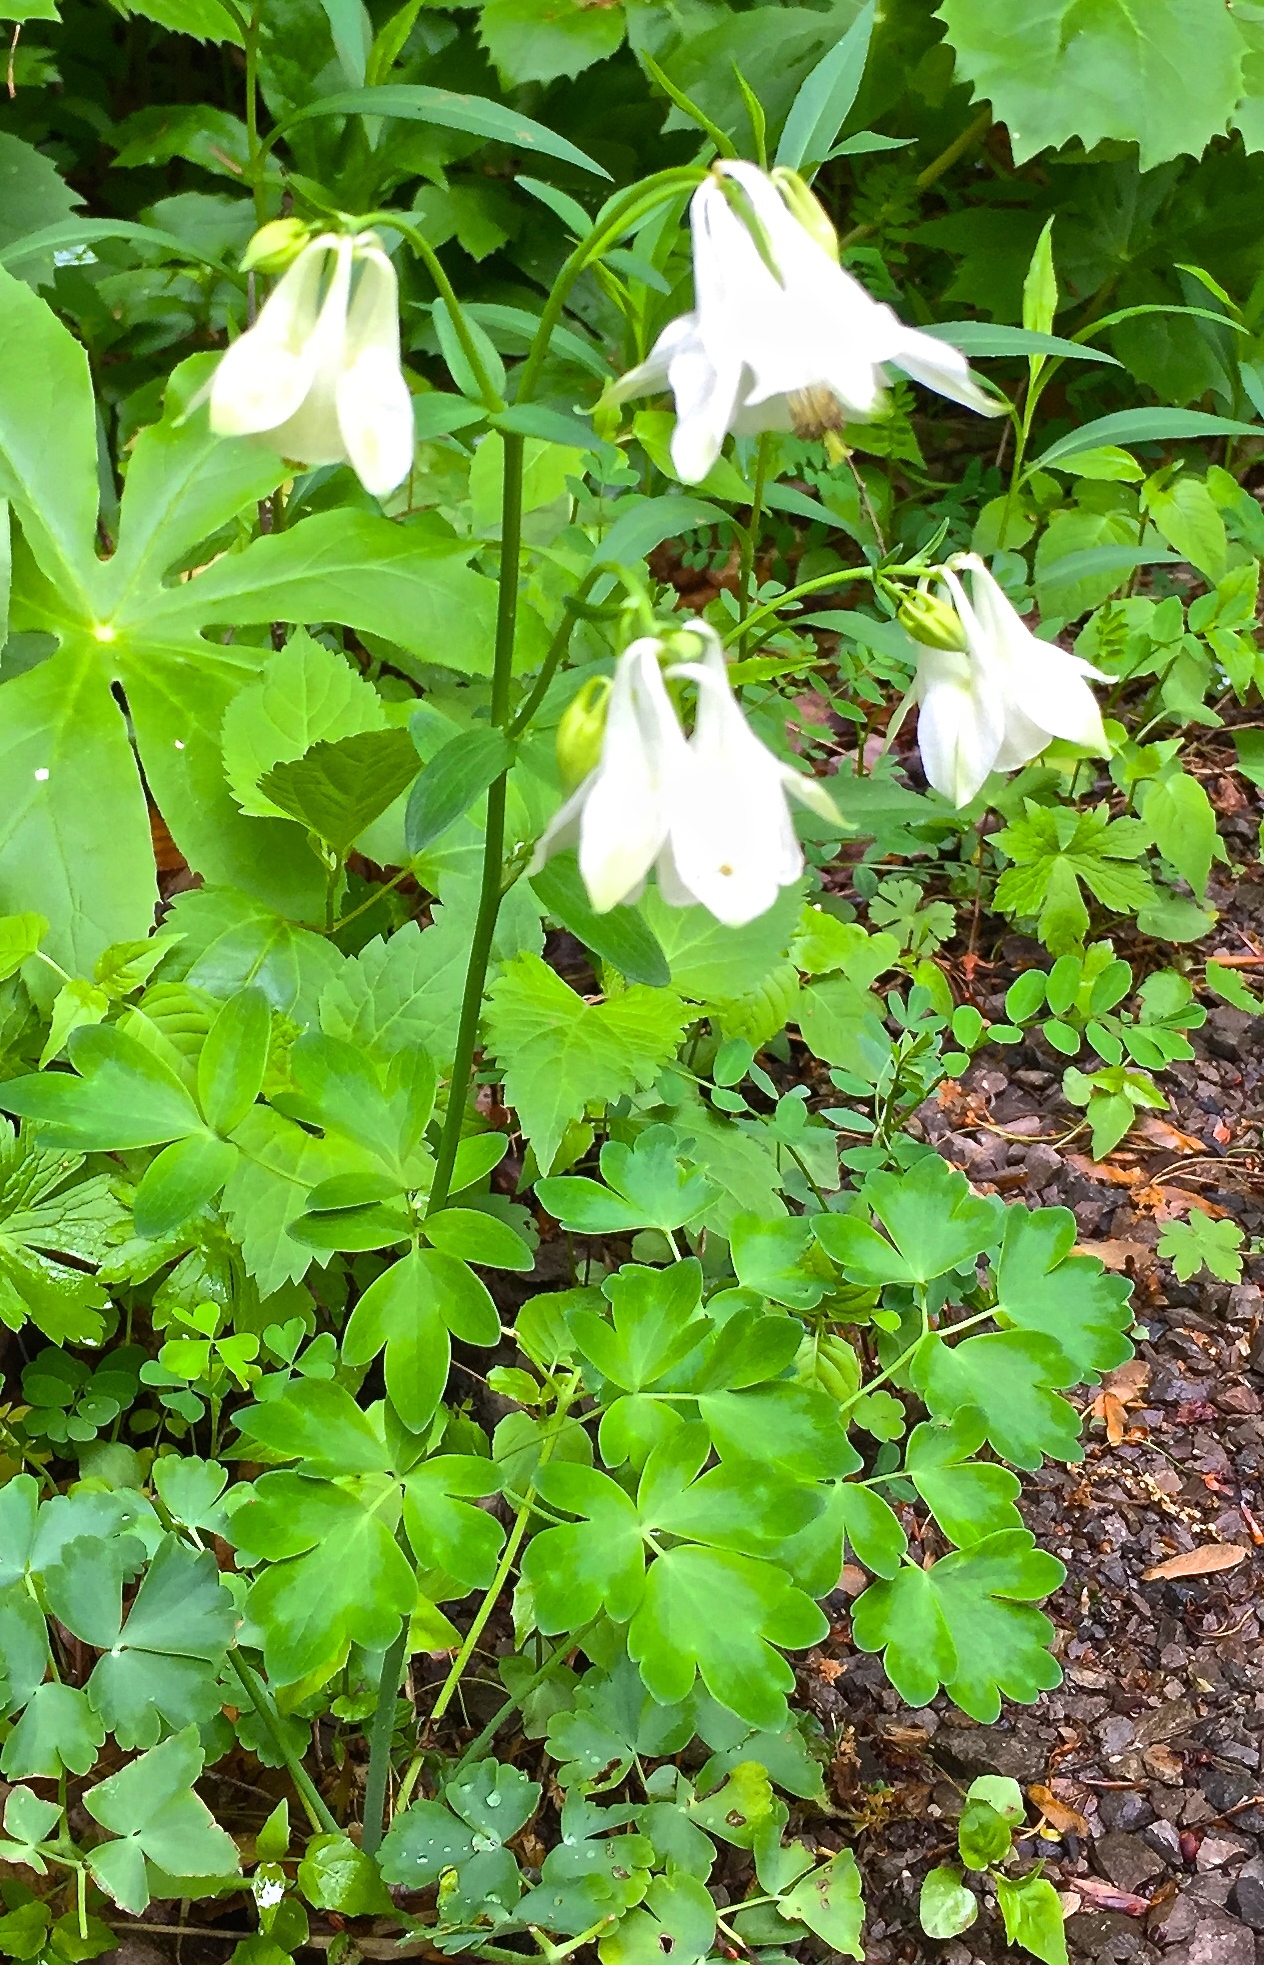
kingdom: Plantae
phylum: Tracheophyta
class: Magnoliopsida
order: Ranunculales
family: Ranunculaceae
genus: Aquilegia
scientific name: Aquilegia vulgaris
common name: Columbine
